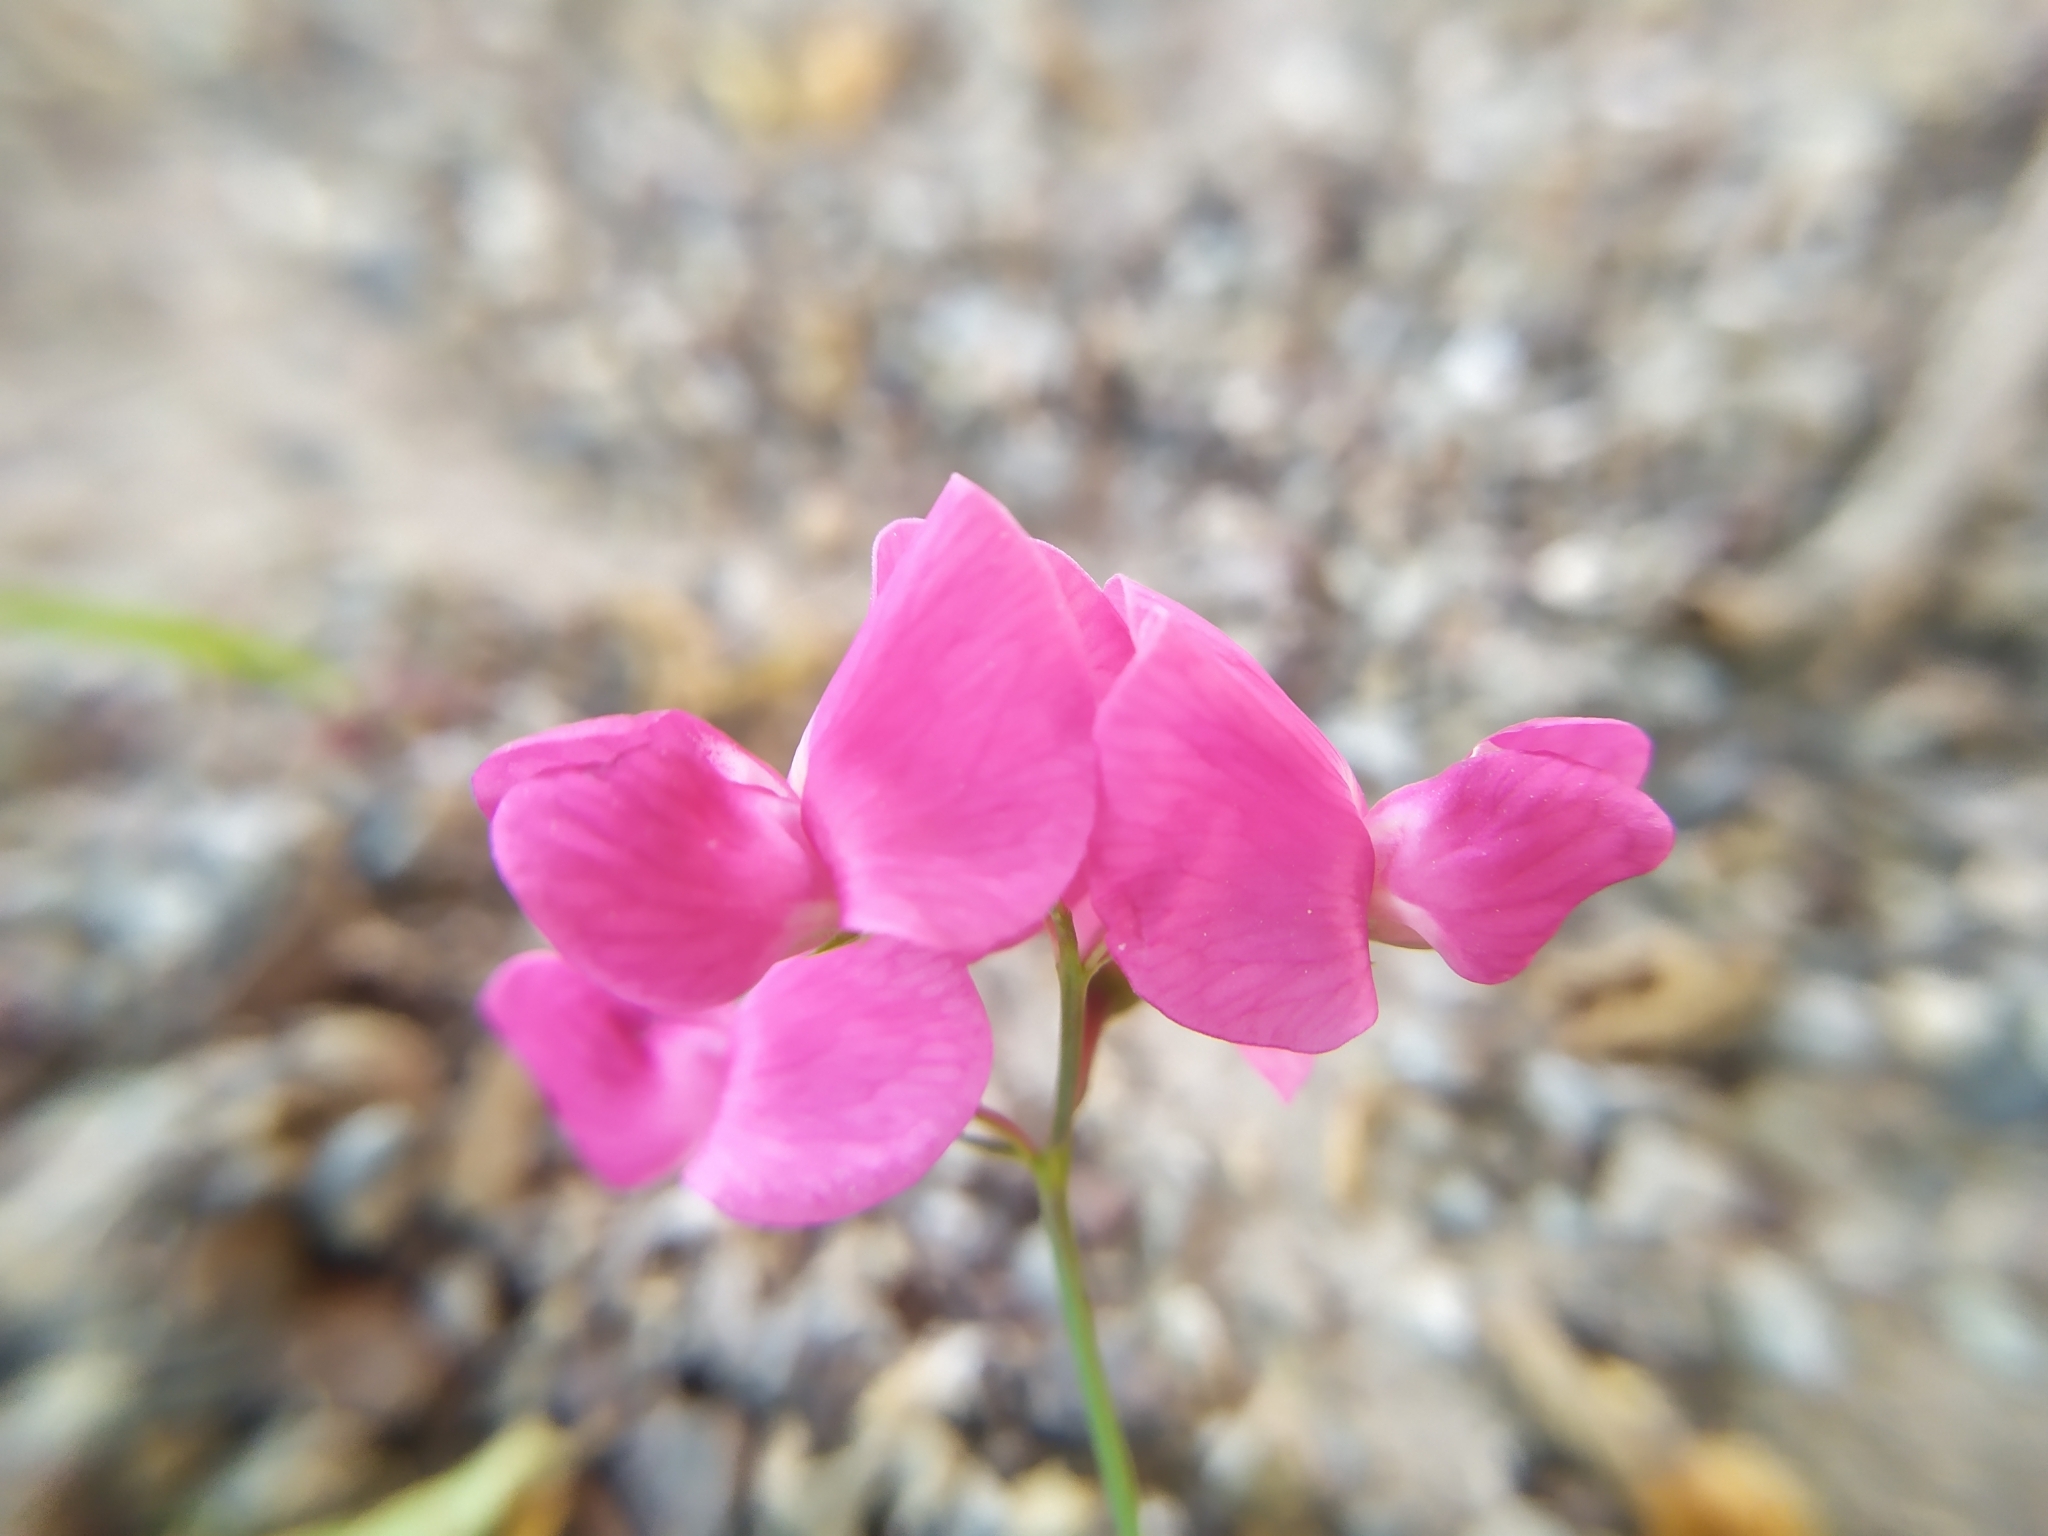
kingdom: Plantae
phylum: Tracheophyta
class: Magnoliopsida
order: Fabales
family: Fabaceae
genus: Lathyrus
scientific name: Lathyrus tuberosus
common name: Tuberous pea
